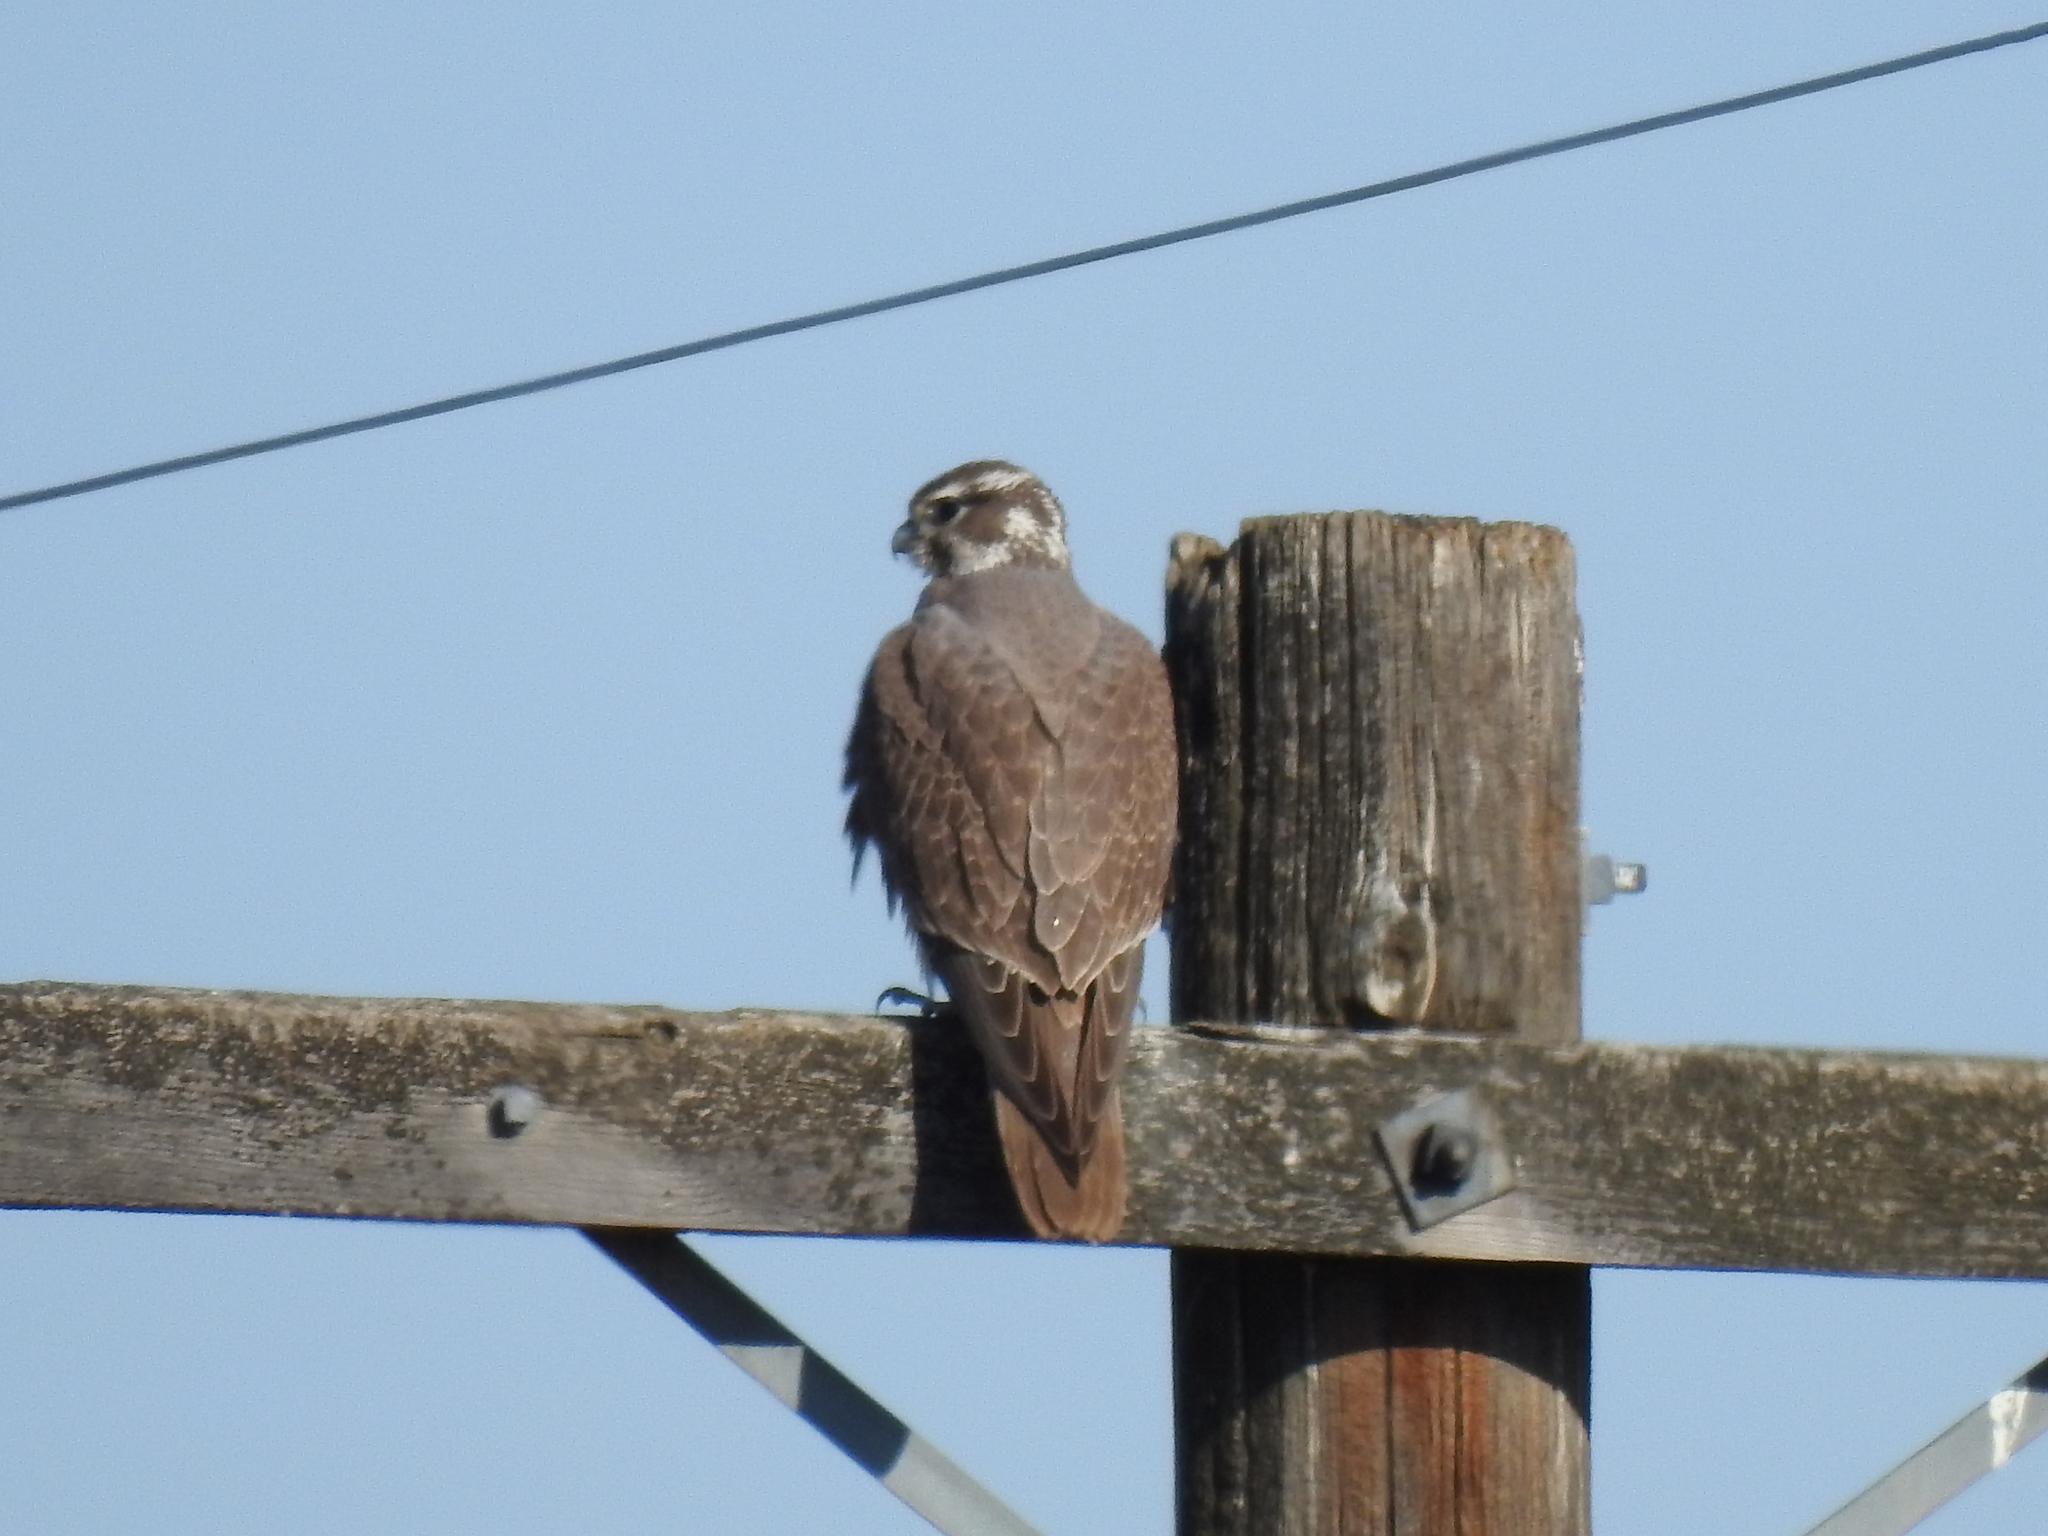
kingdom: Animalia
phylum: Chordata
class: Aves
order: Falconiformes
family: Falconidae
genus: Falco
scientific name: Falco mexicanus
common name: Prairie falcon
